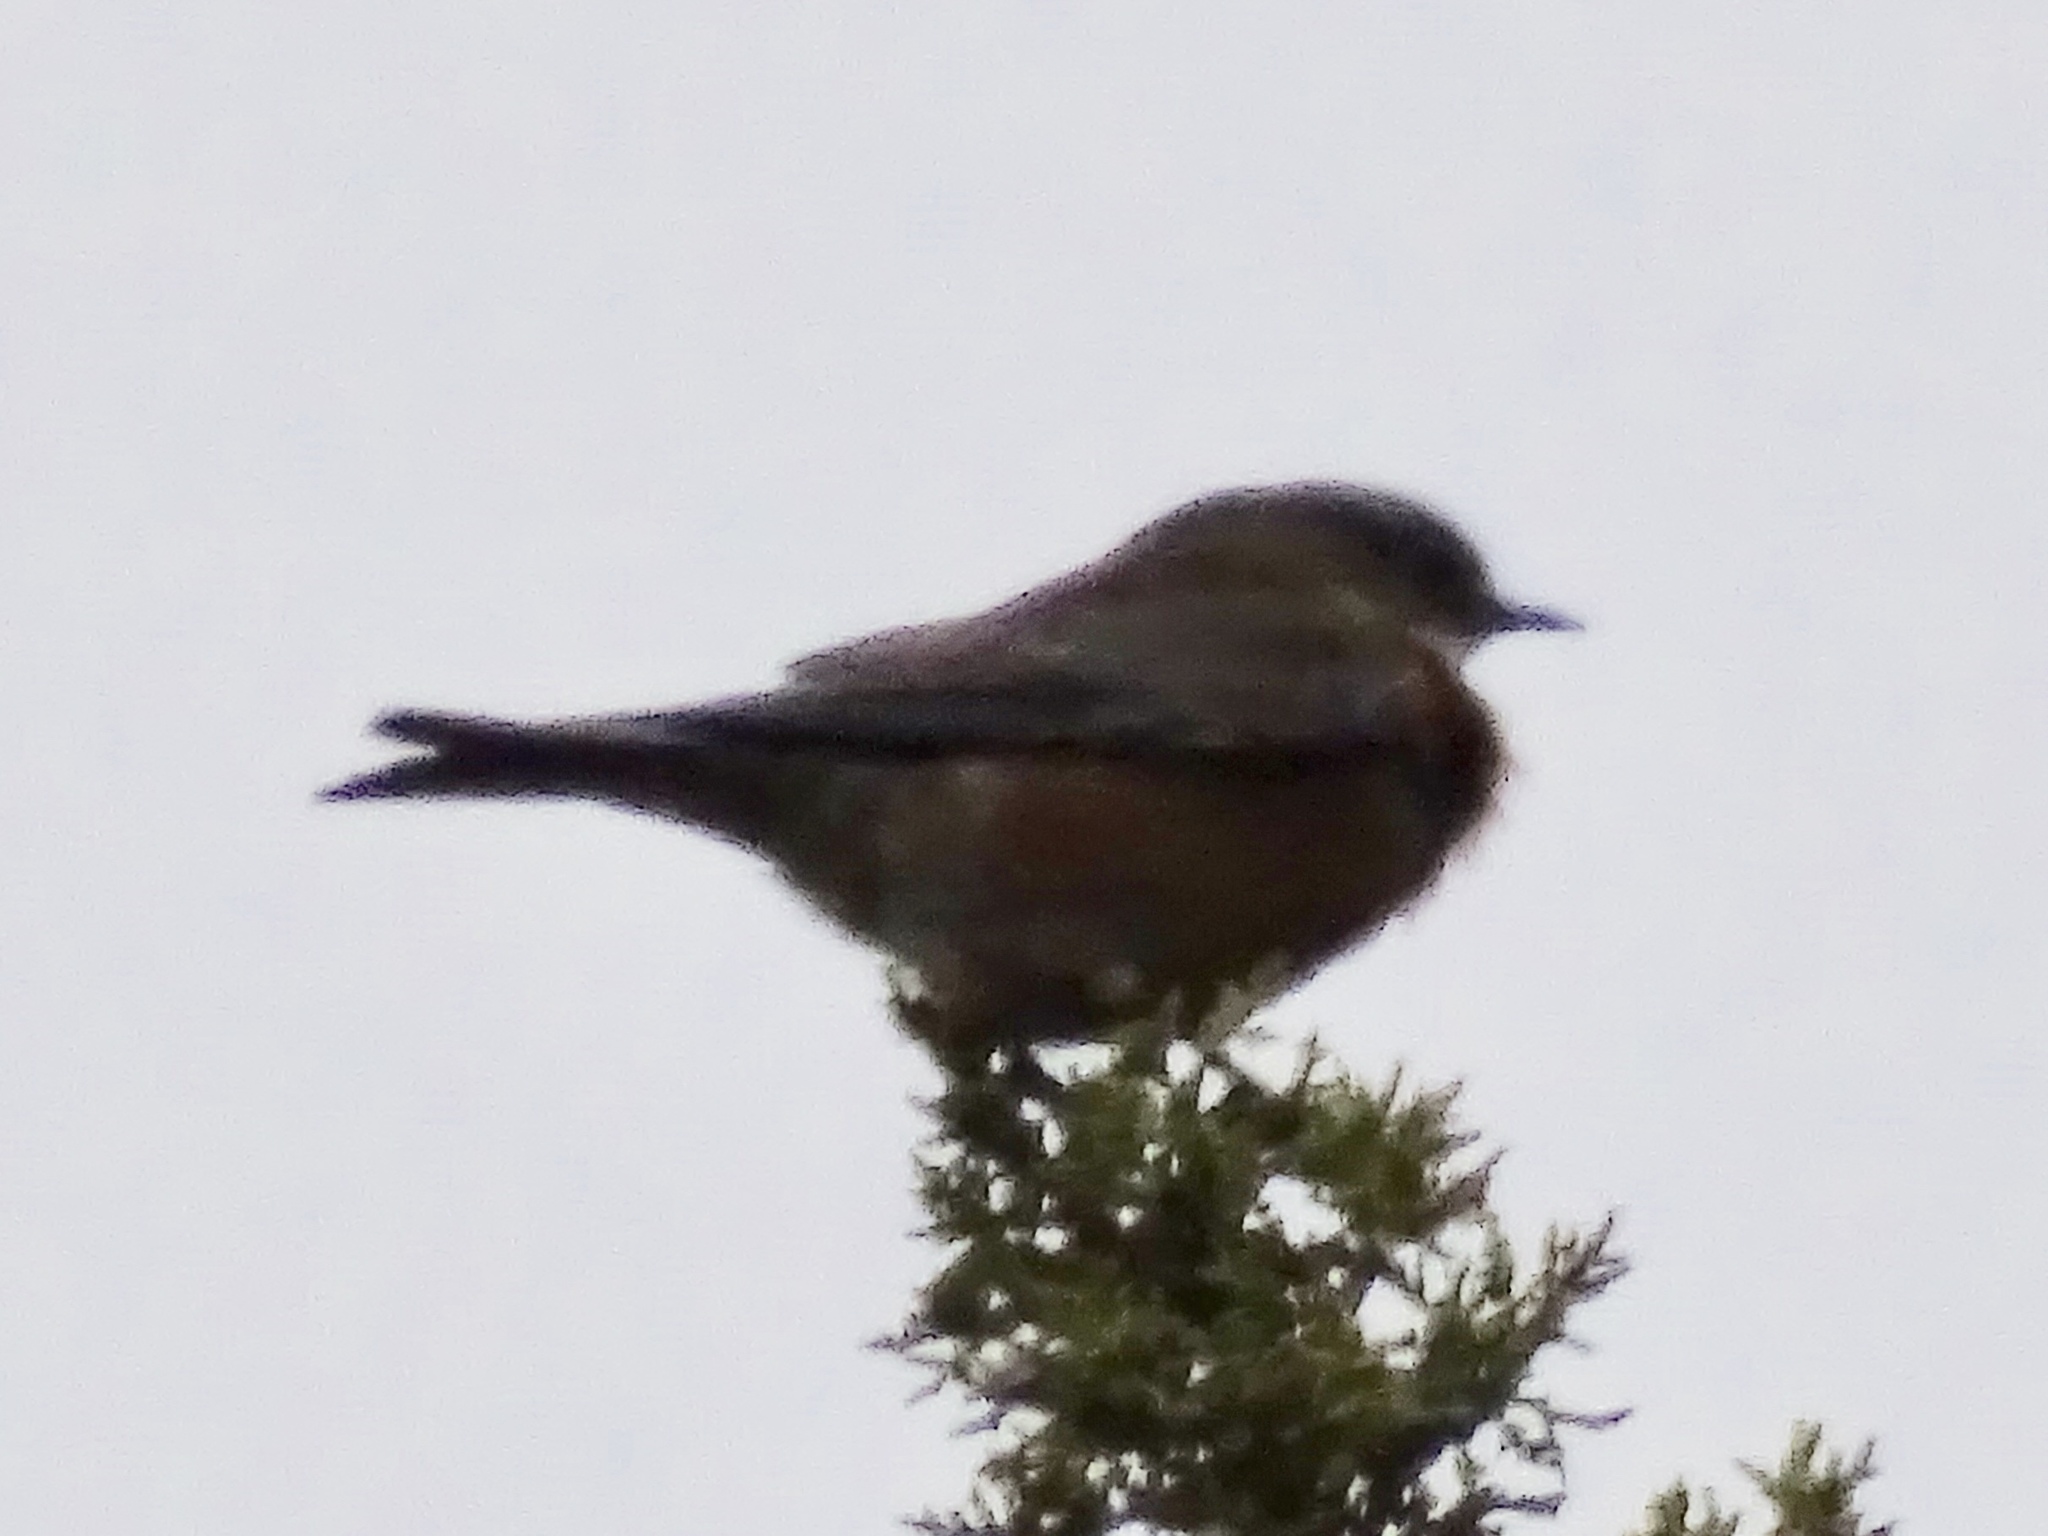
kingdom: Animalia
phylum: Chordata
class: Aves
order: Passeriformes
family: Turdidae
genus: Sialia
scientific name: Sialia sialis
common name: Eastern bluebird
